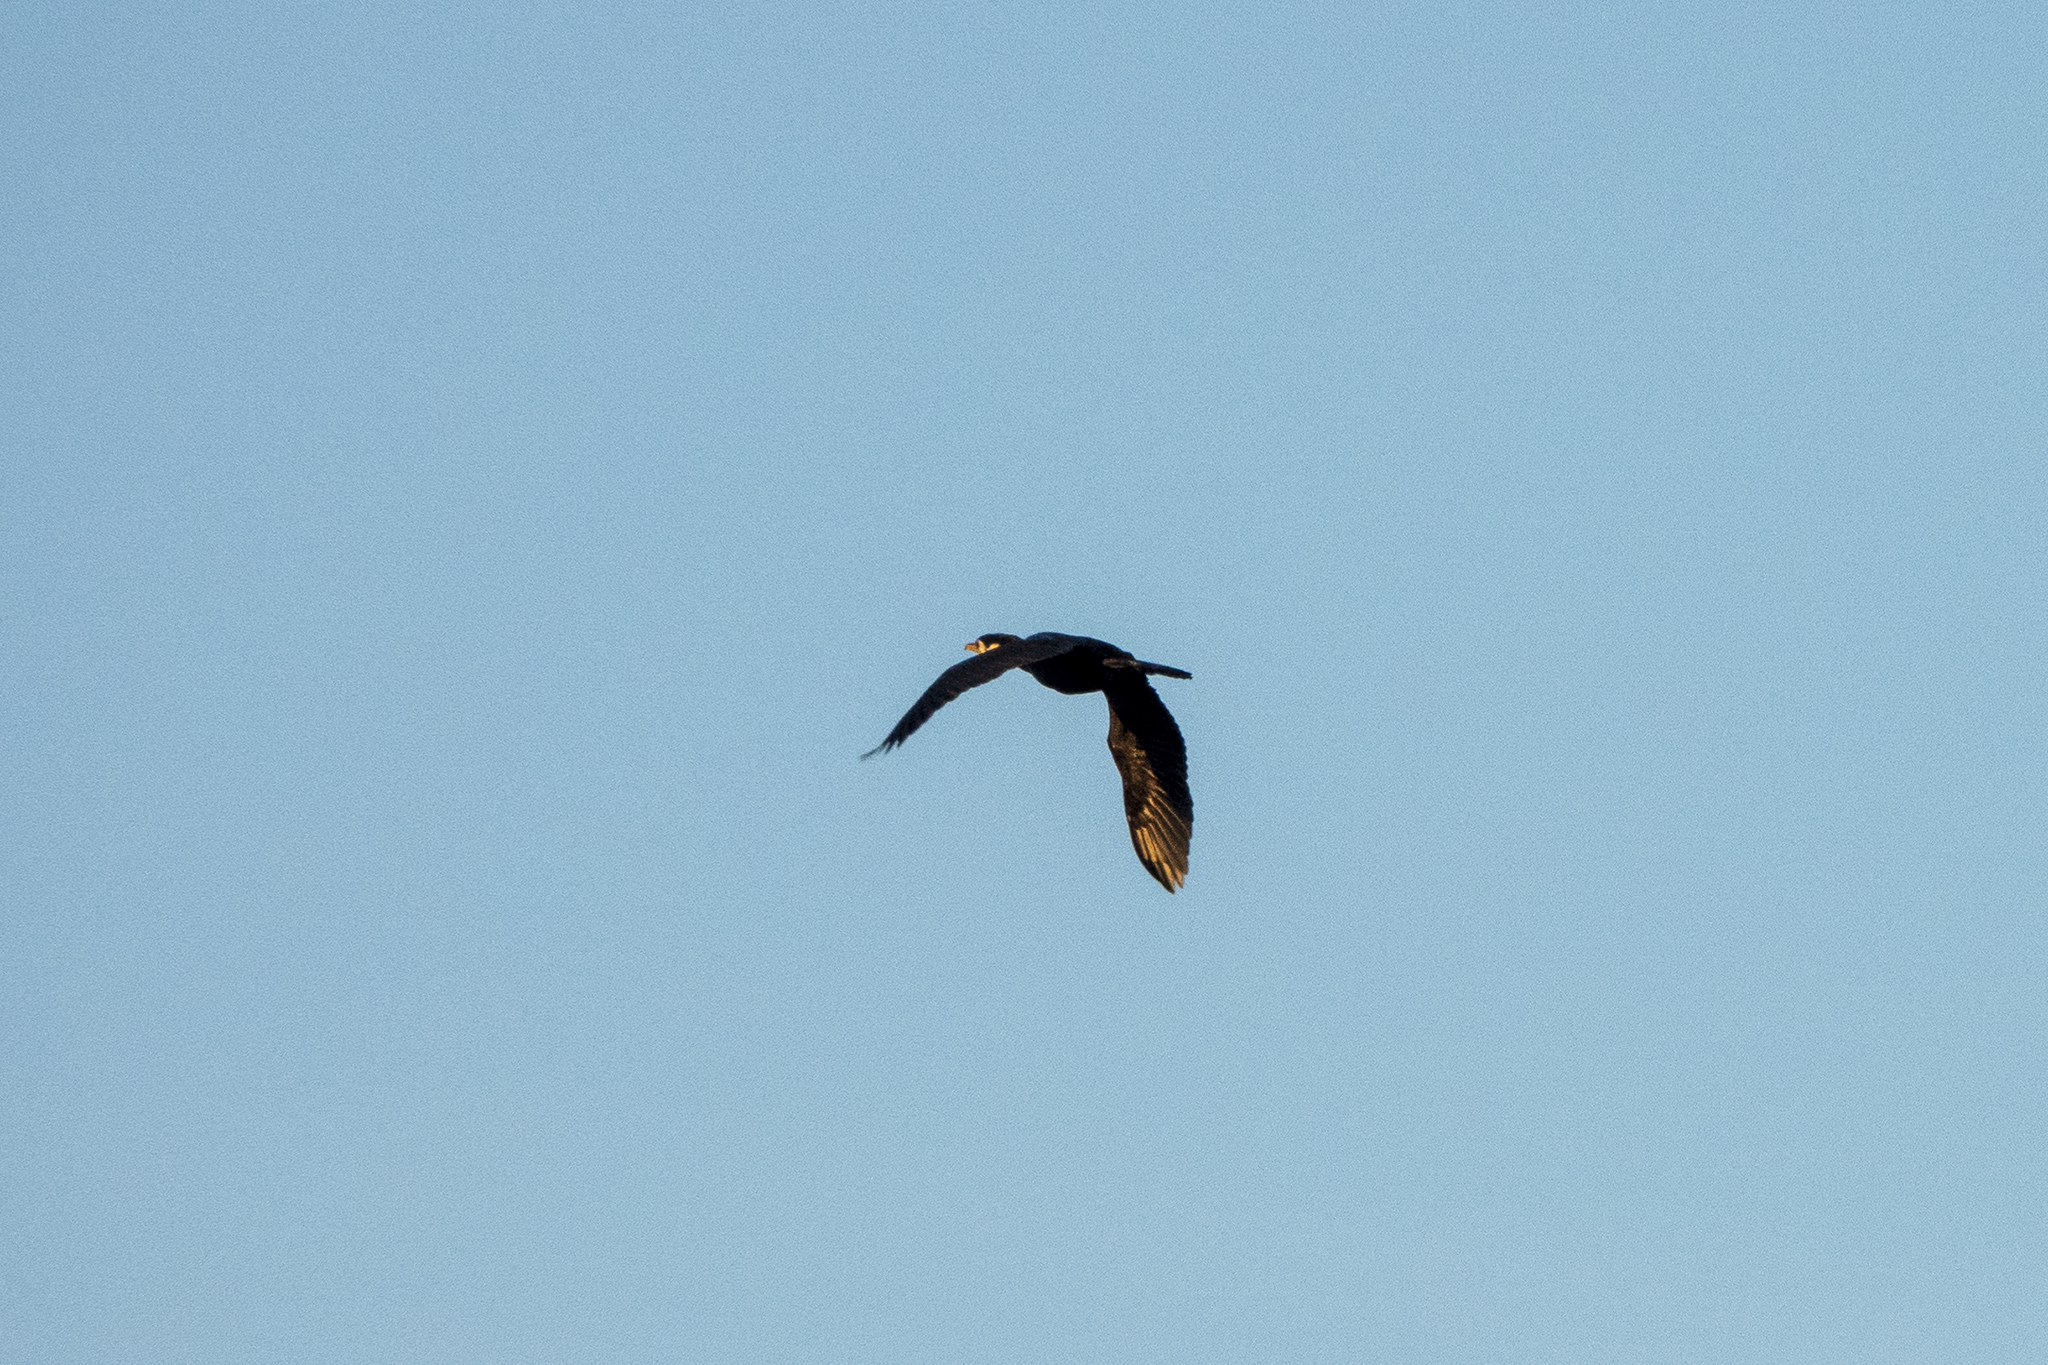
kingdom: Animalia
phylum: Chordata
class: Aves
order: Suliformes
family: Phalacrocoracidae
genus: Microcarbo
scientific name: Microcarbo melanoleucos
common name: Little pied cormorant
